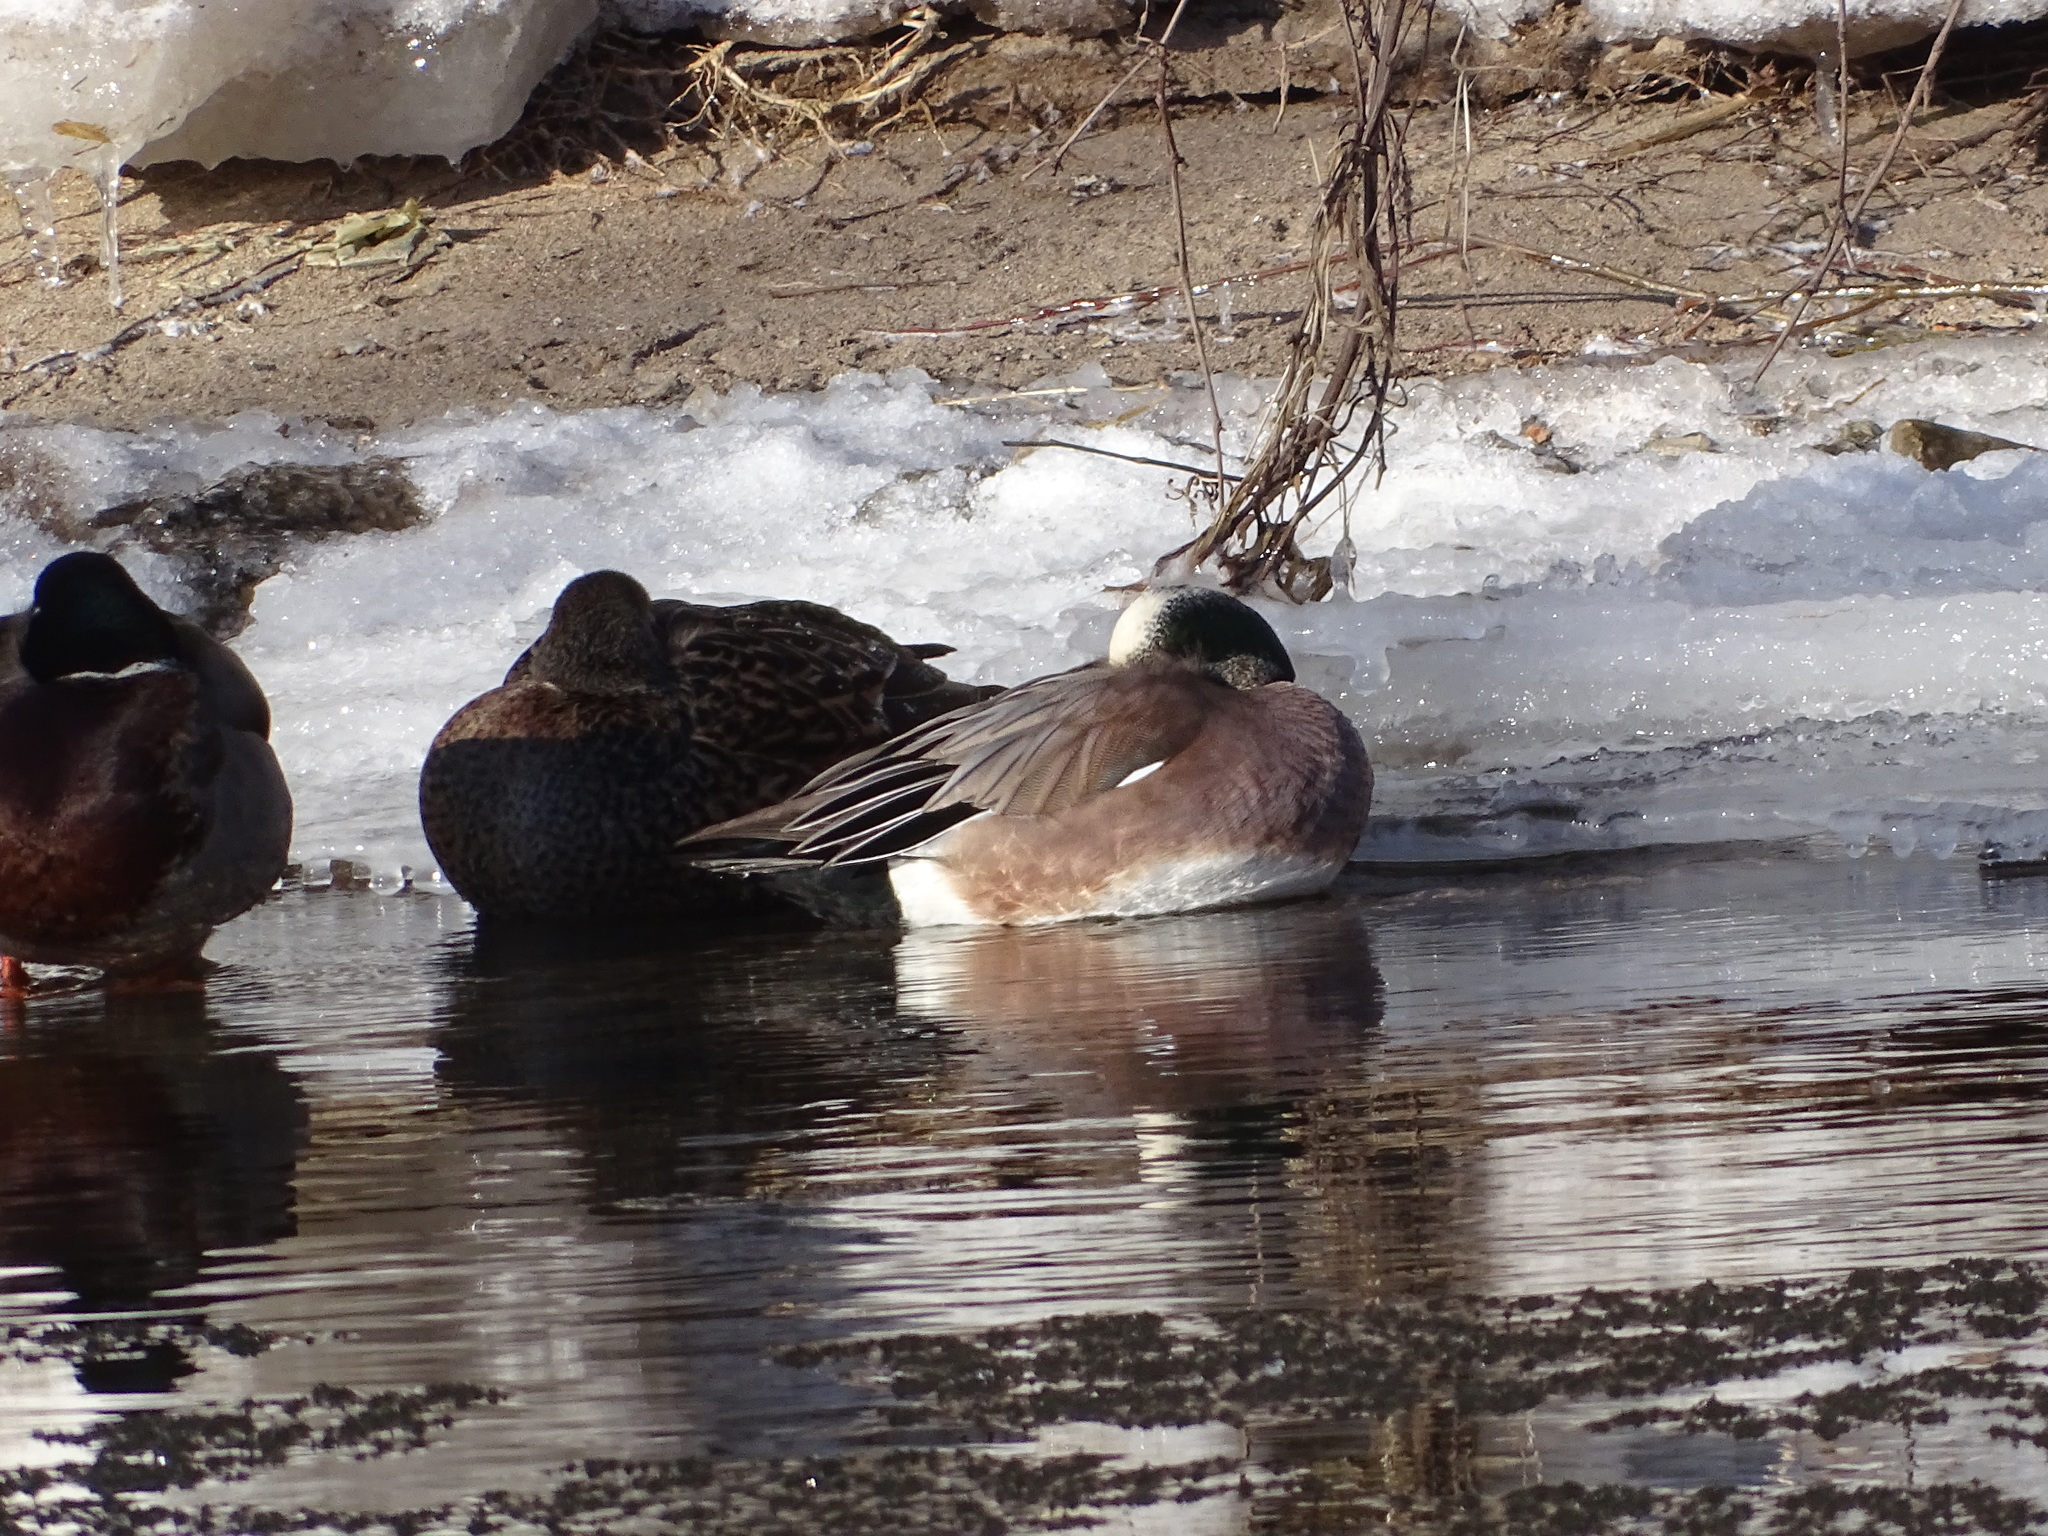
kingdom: Animalia
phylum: Chordata
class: Aves
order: Anseriformes
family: Anatidae
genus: Mareca
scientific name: Mareca americana
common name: American wigeon
